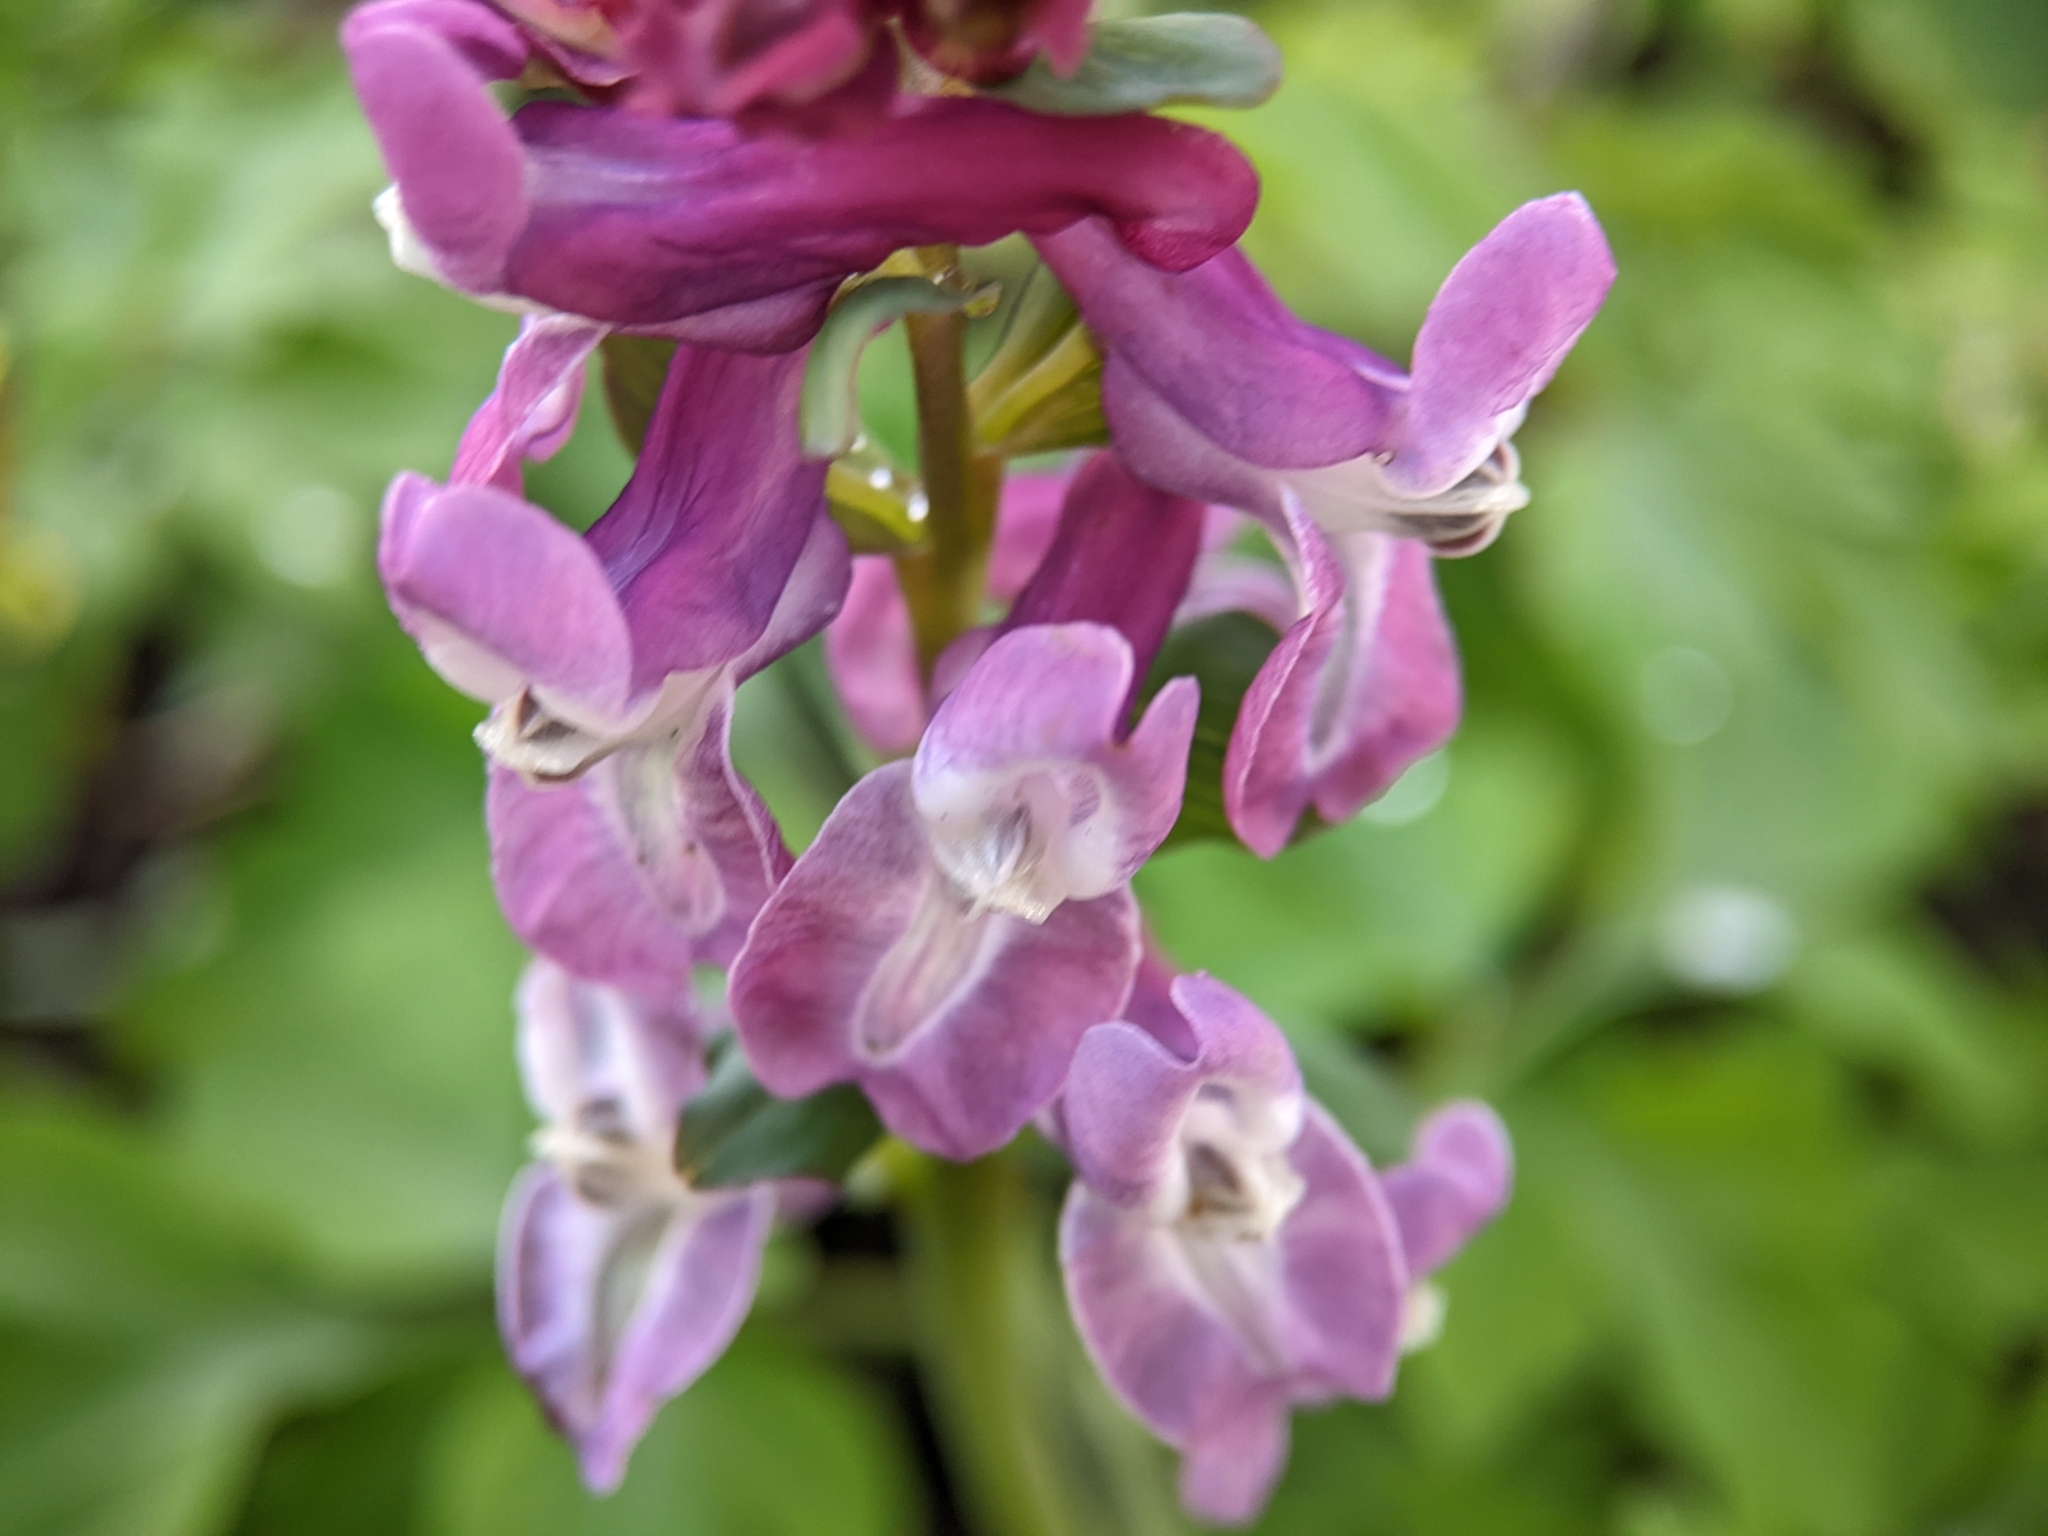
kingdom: Plantae
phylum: Tracheophyta
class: Magnoliopsida
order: Ranunculales
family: Papaveraceae
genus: Corydalis
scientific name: Corydalis cava
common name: Hollowroot
